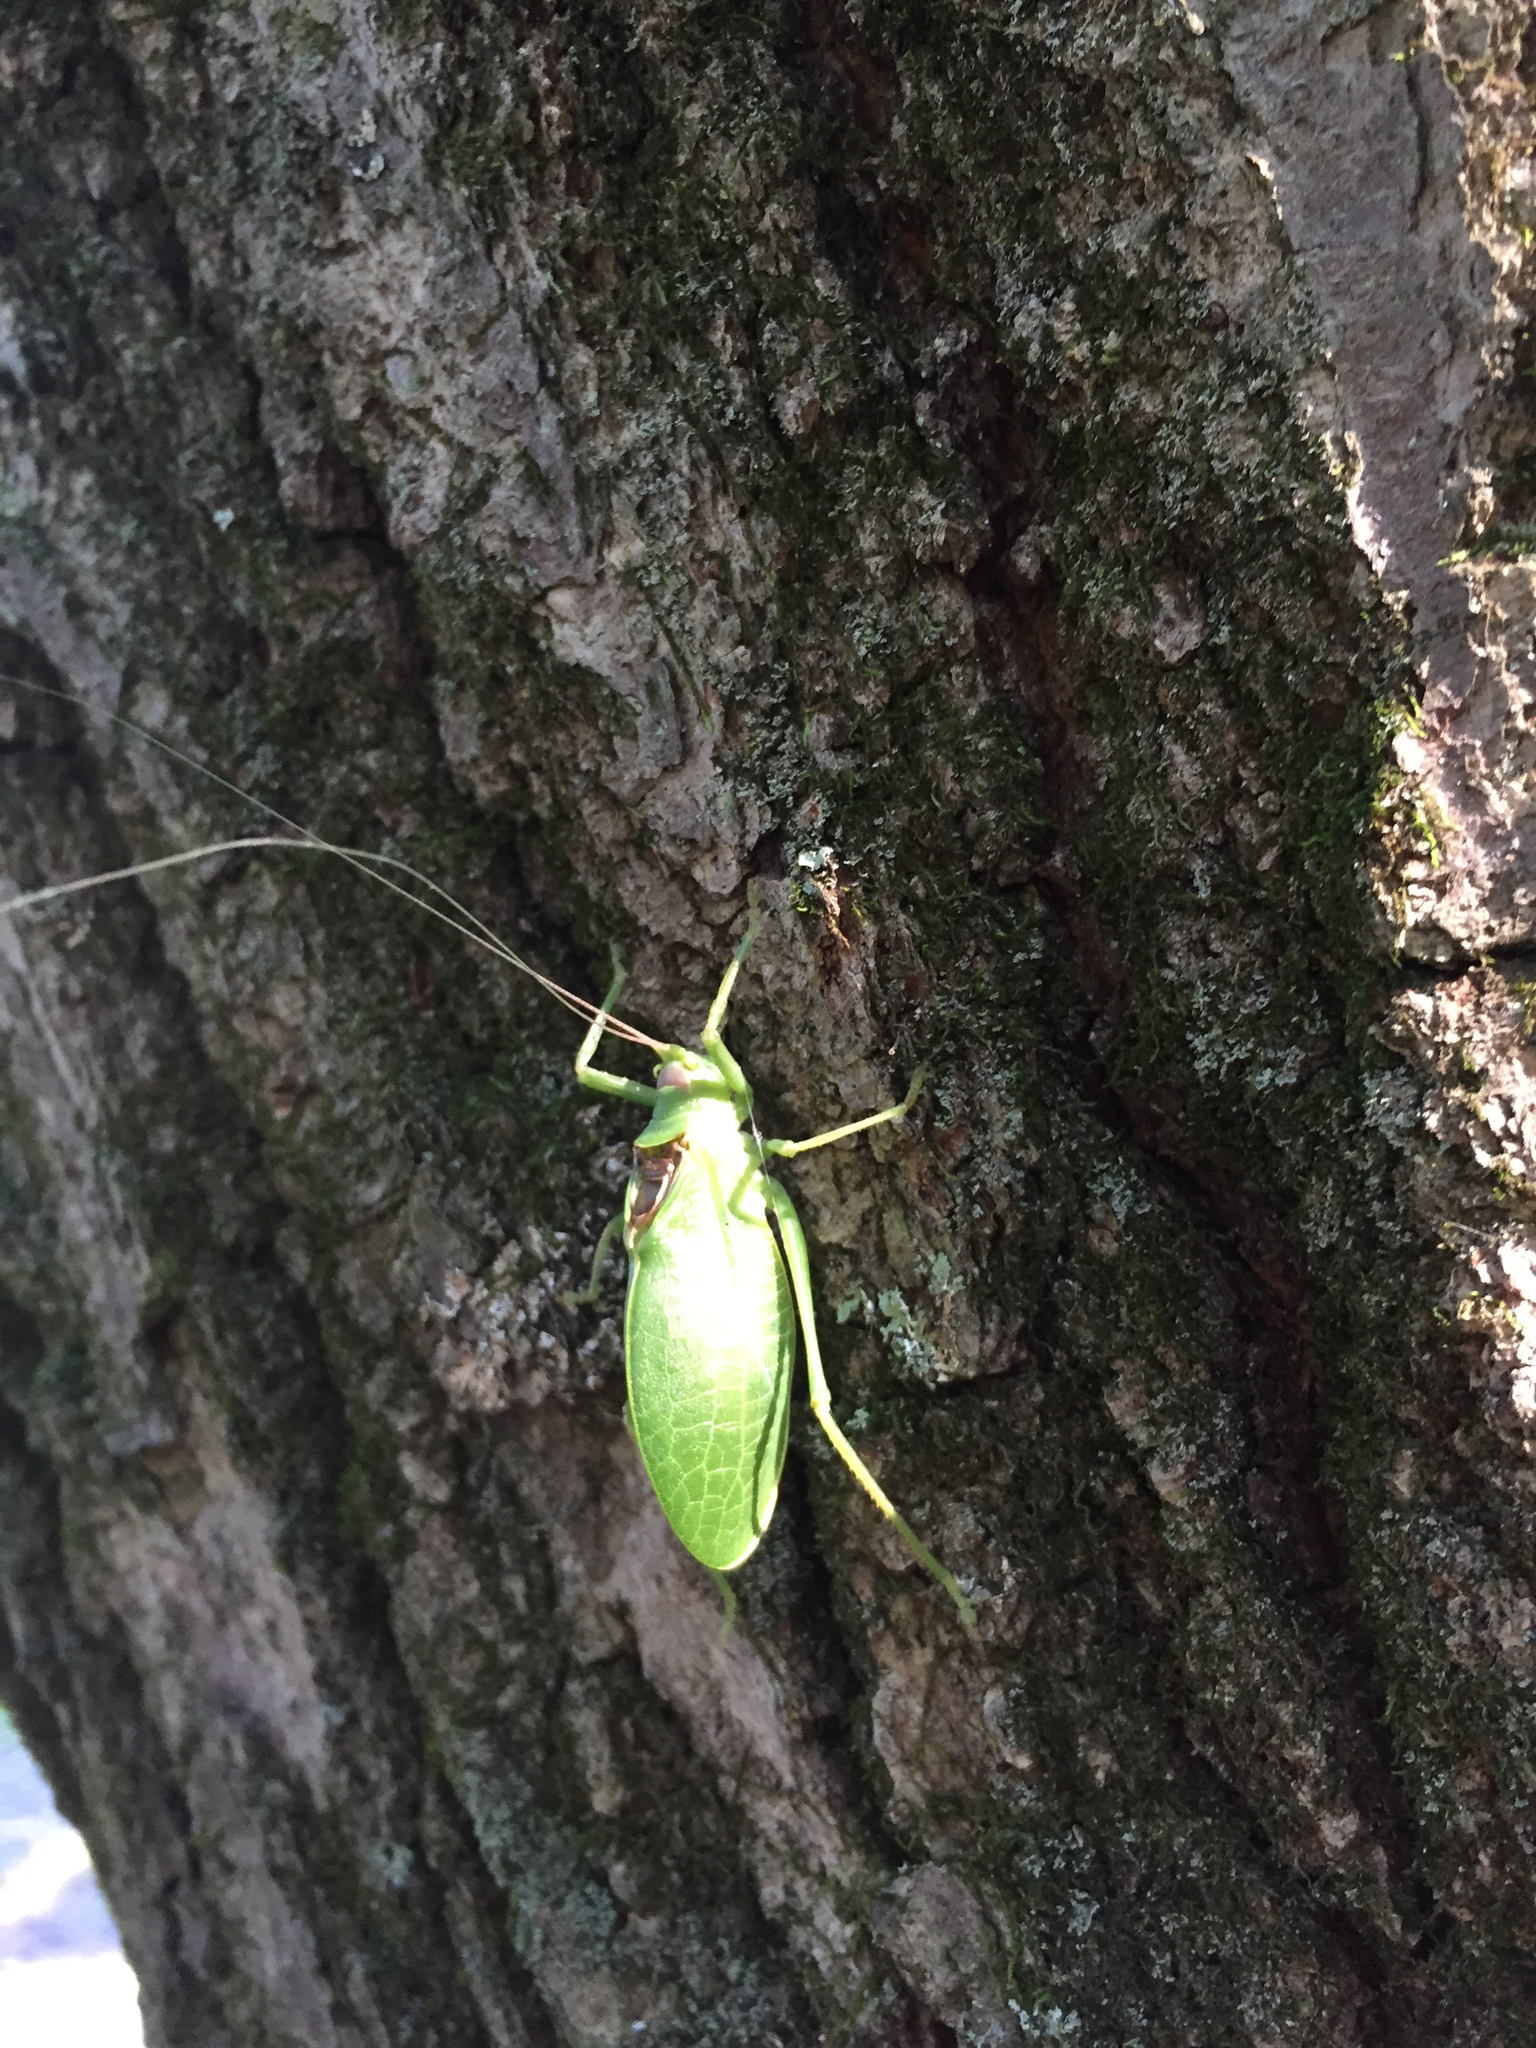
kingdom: Animalia
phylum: Arthropoda
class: Insecta
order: Orthoptera
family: Tettigoniidae
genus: Pterophylla
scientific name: Pterophylla camellifolia
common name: Common true katydid
